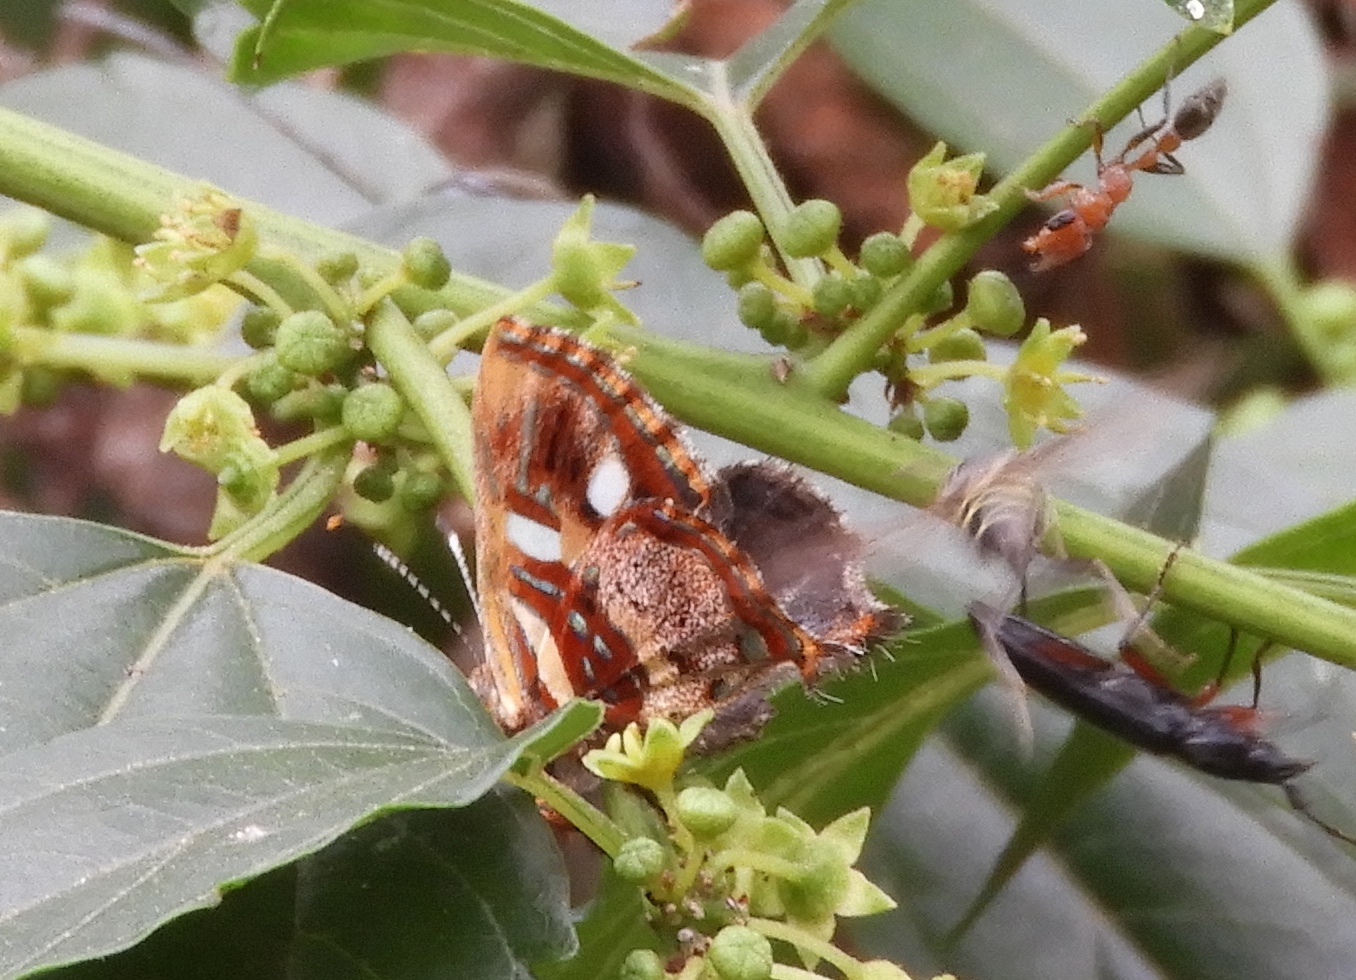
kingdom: Animalia
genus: Anteros
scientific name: Anteros carausius
